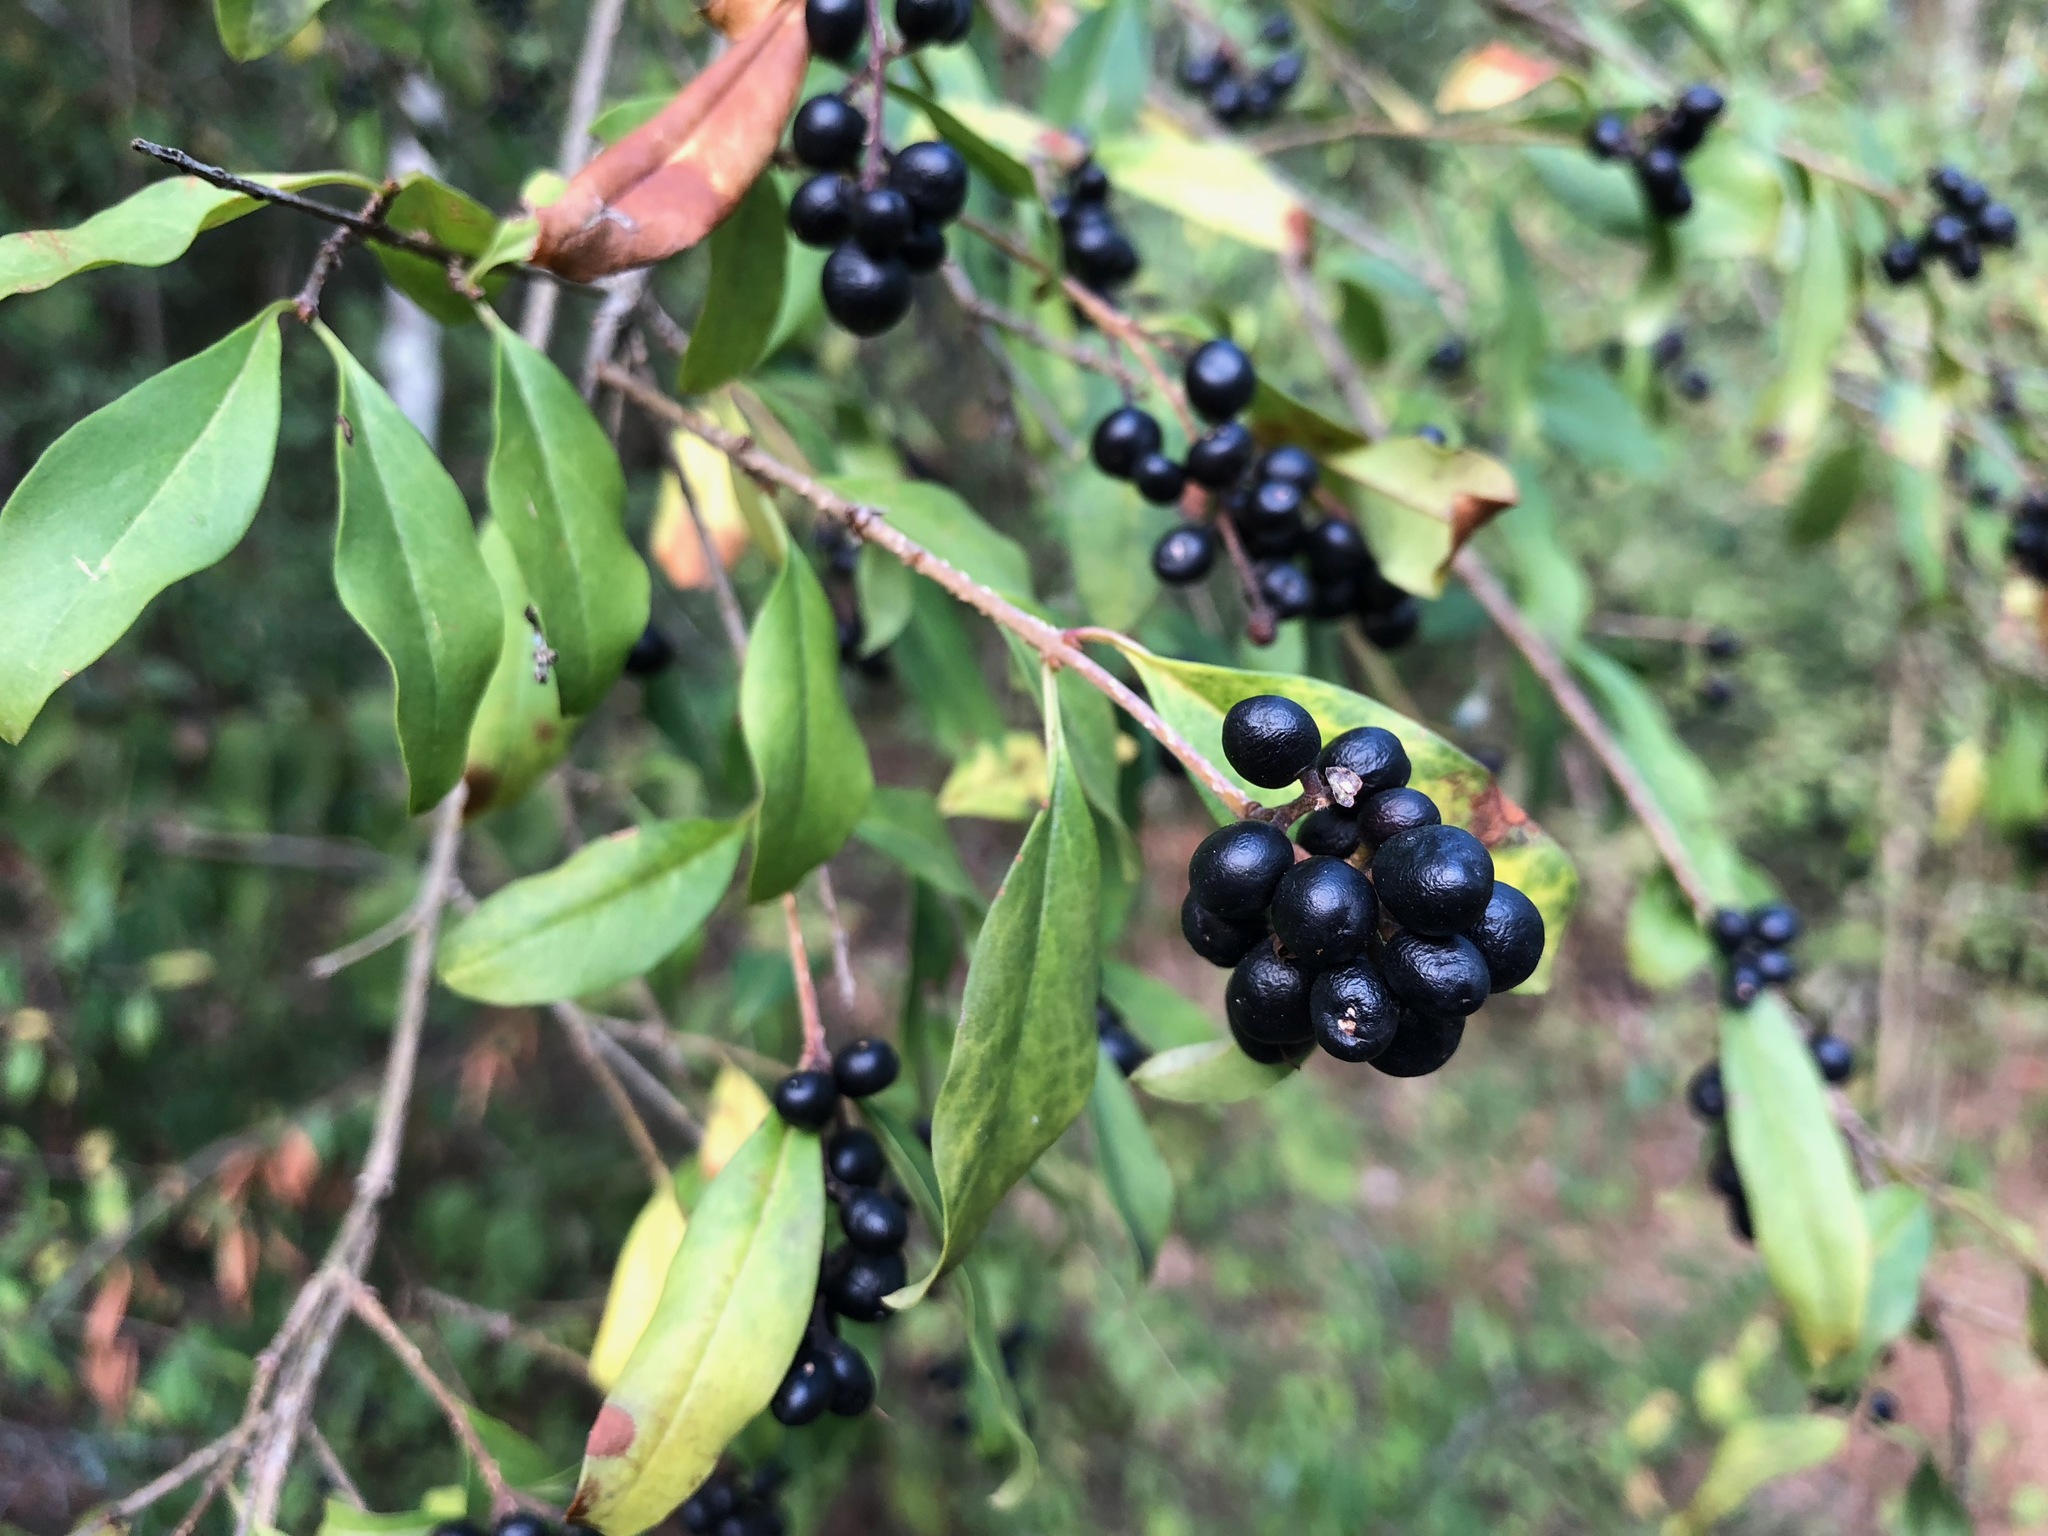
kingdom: Plantae
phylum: Tracheophyta
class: Magnoliopsida
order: Lamiales
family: Oleaceae
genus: Ligustrum
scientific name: Ligustrum vulgare
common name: Wild privet
